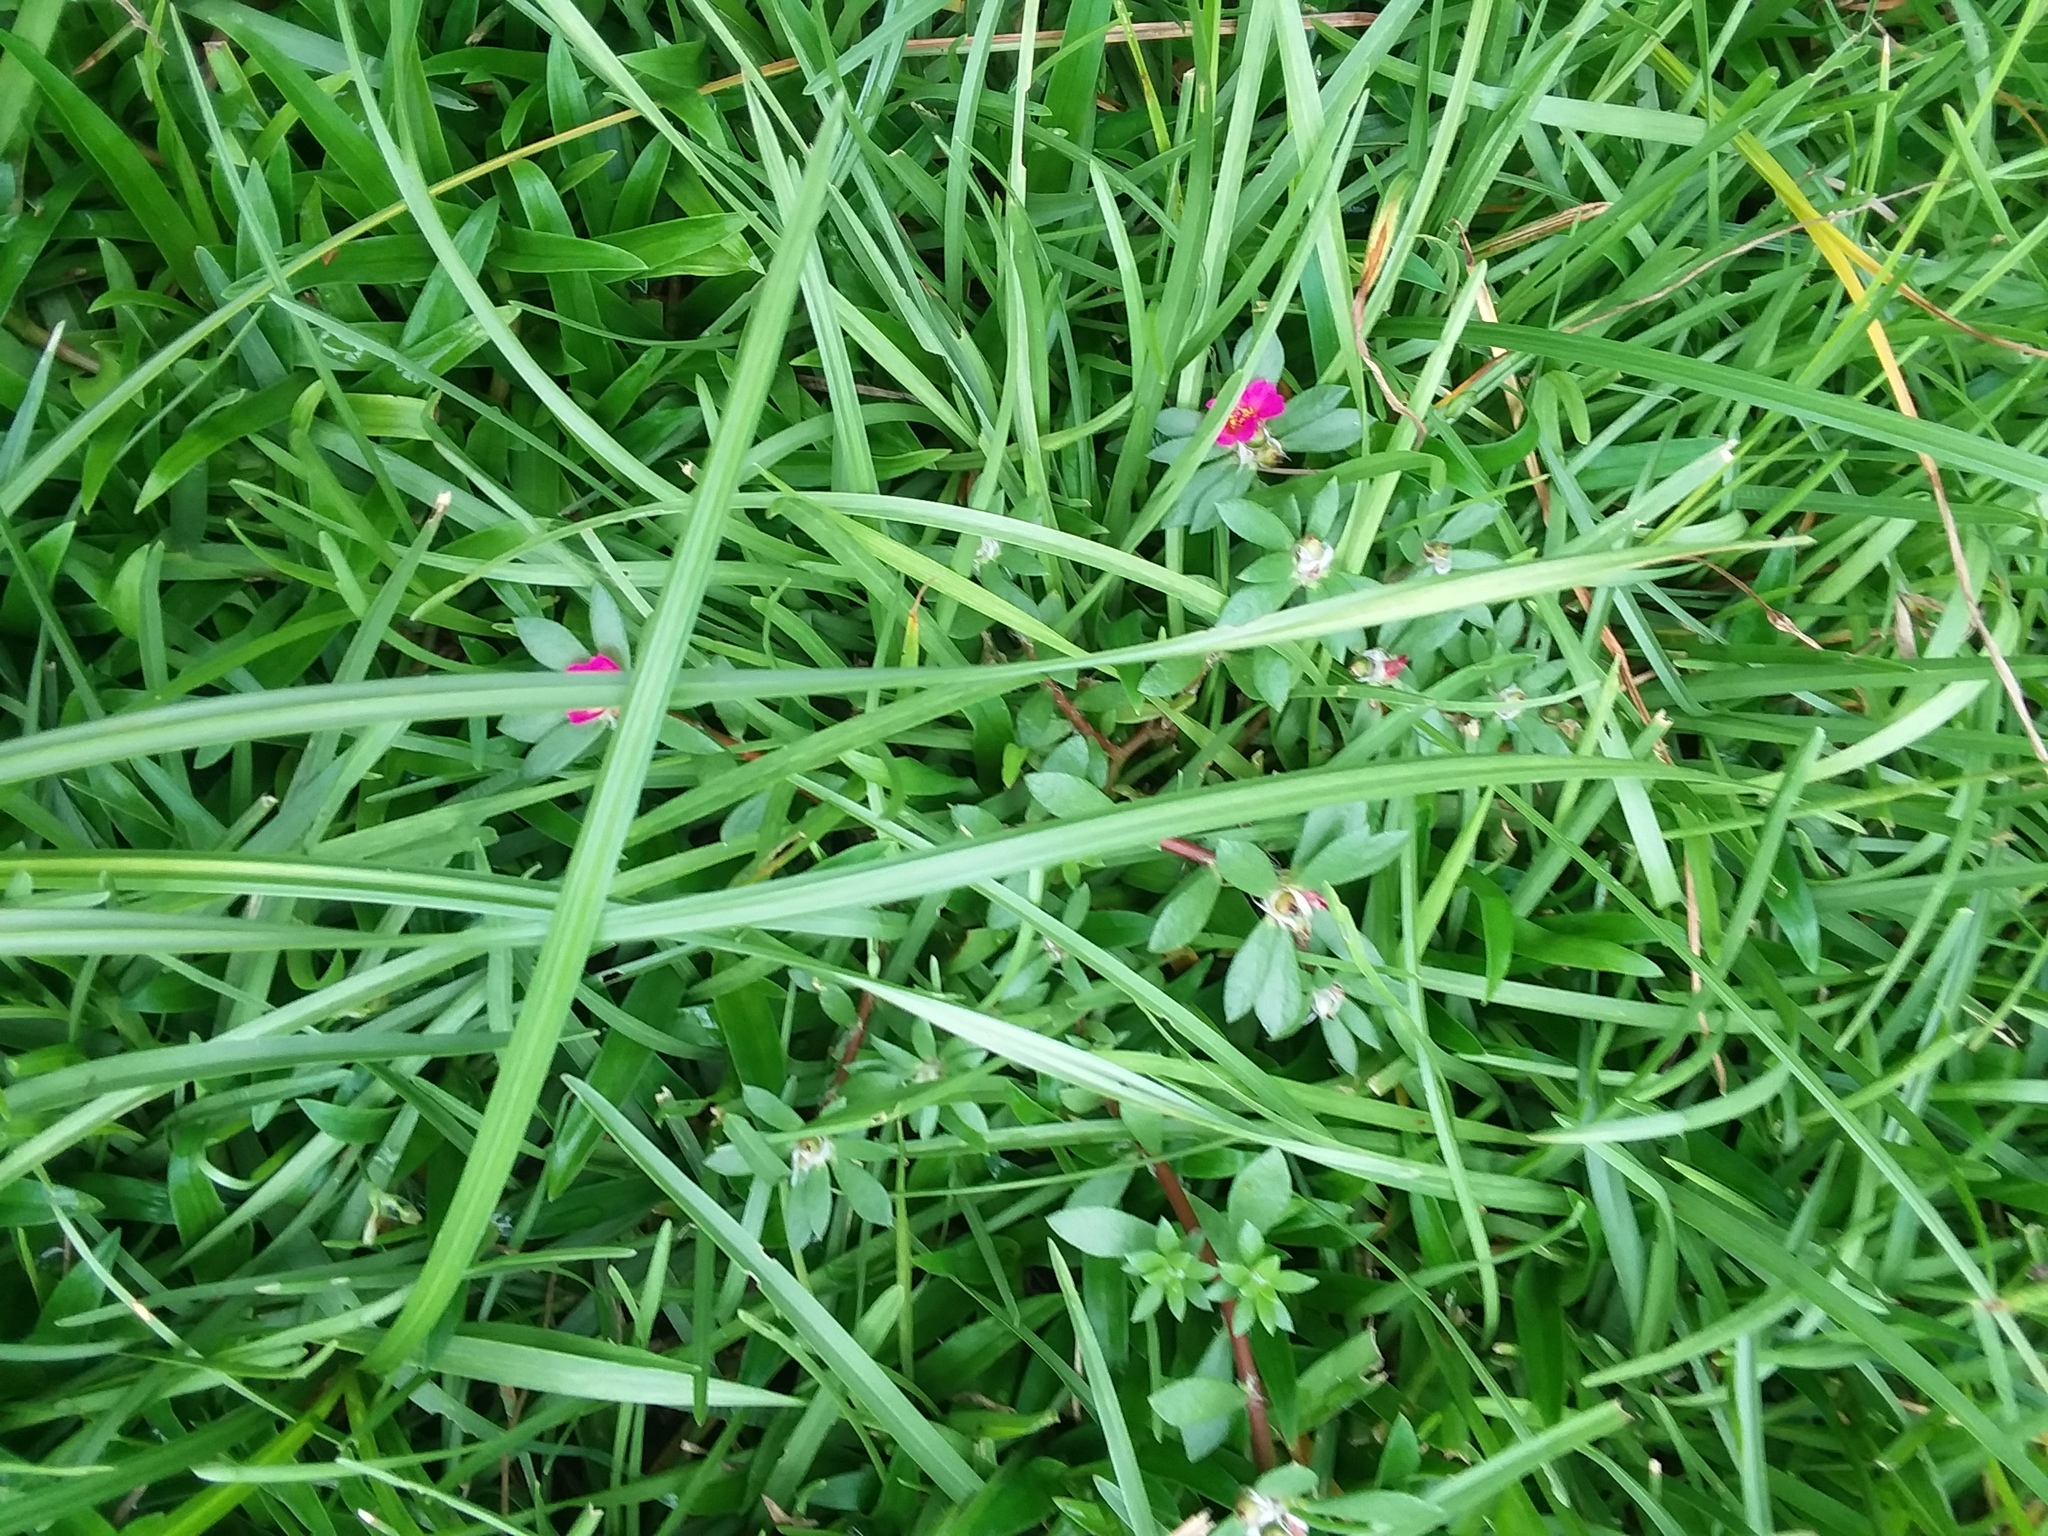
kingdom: Plantae
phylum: Tracheophyta
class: Magnoliopsida
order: Caryophyllales
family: Portulacaceae
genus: Portulaca
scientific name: Portulaca amilis
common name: Paraguayan purslane
